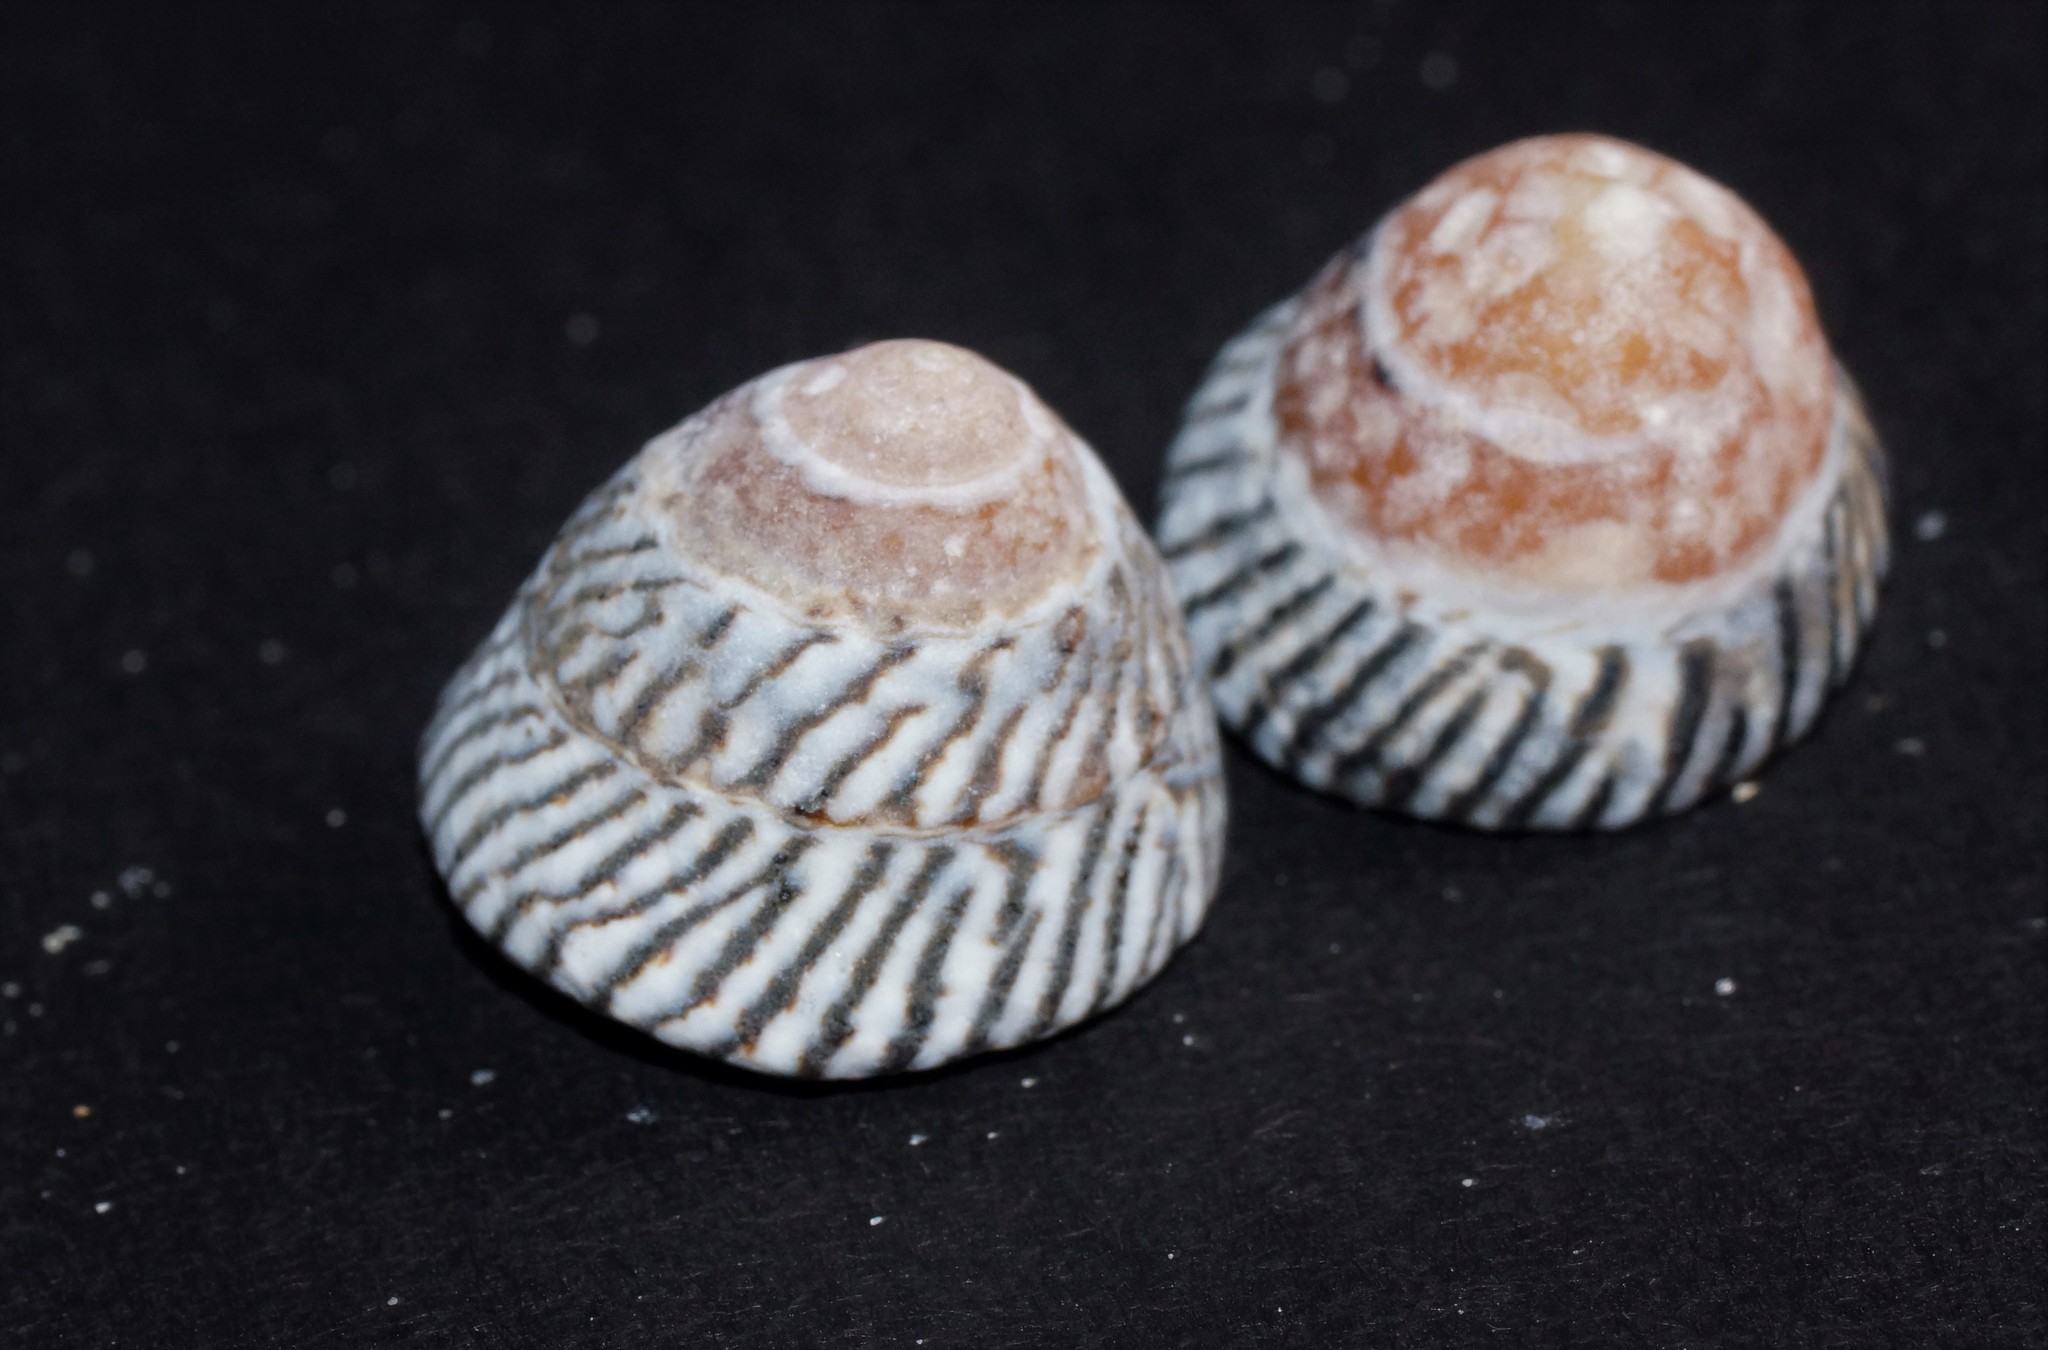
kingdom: Animalia
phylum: Mollusca
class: Gastropoda
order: Littorinimorpha
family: Littorinidae
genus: Bembicium
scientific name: Bembicium nanum
